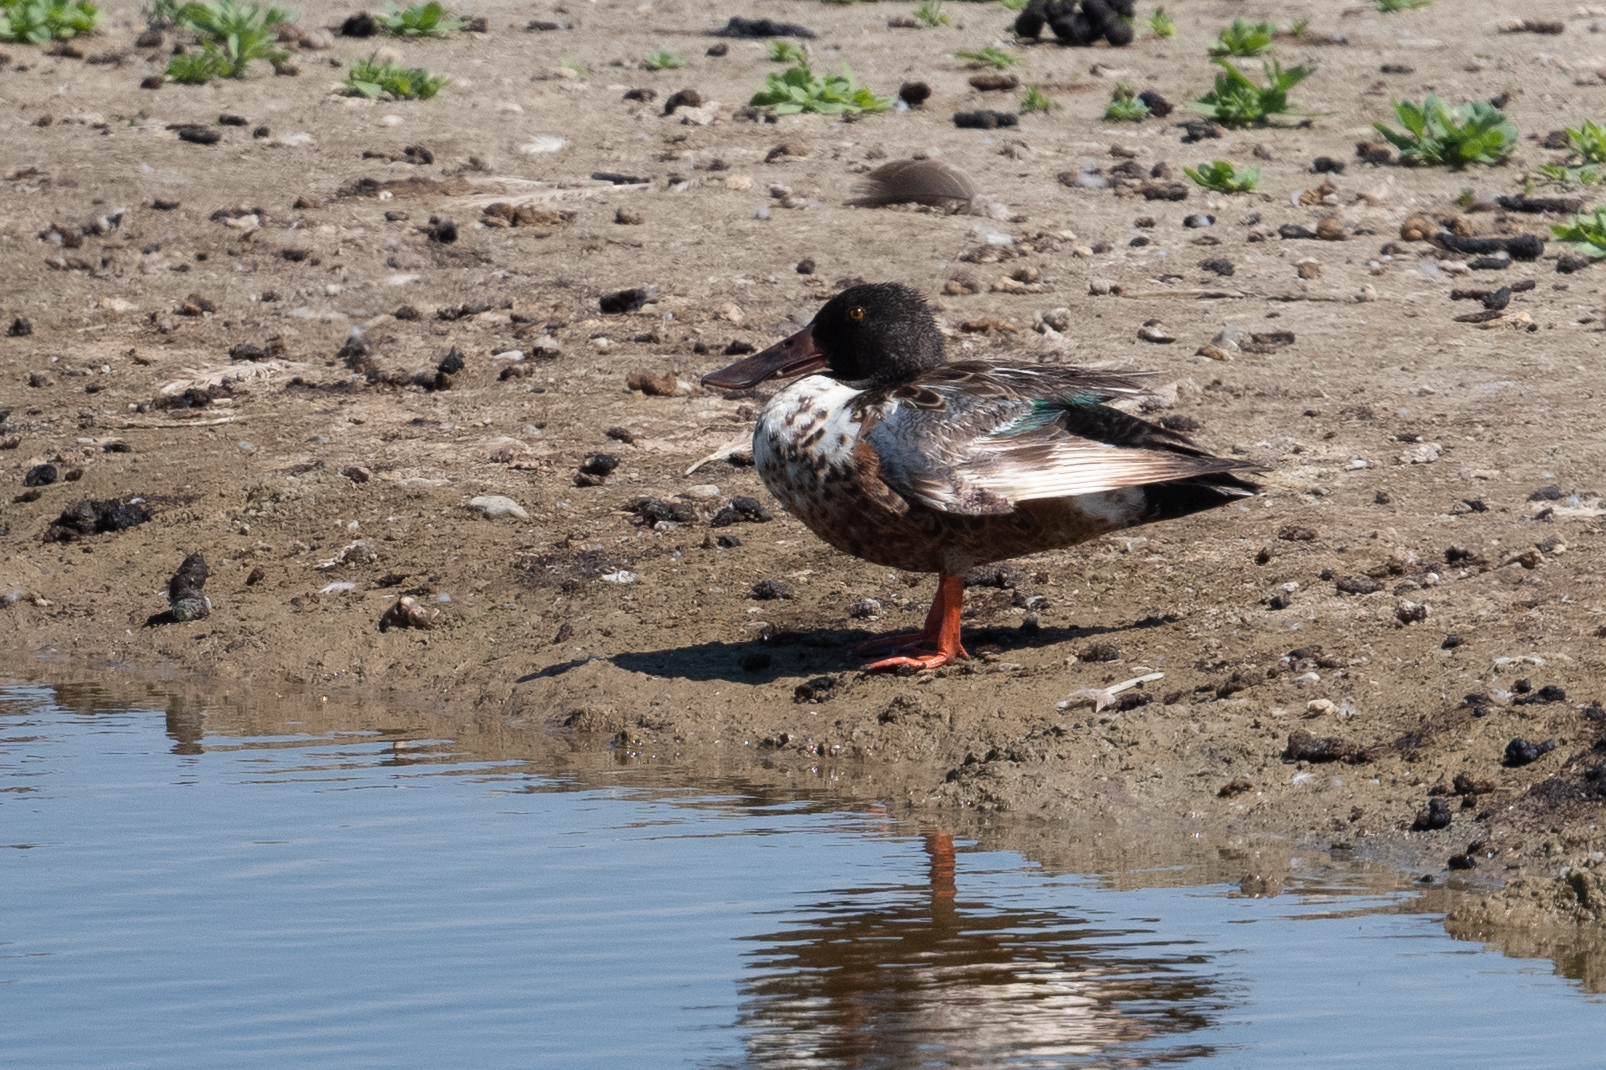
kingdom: Animalia
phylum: Chordata
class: Aves
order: Anseriformes
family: Anatidae
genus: Spatula
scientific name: Spatula clypeata
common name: Northern shoveler
